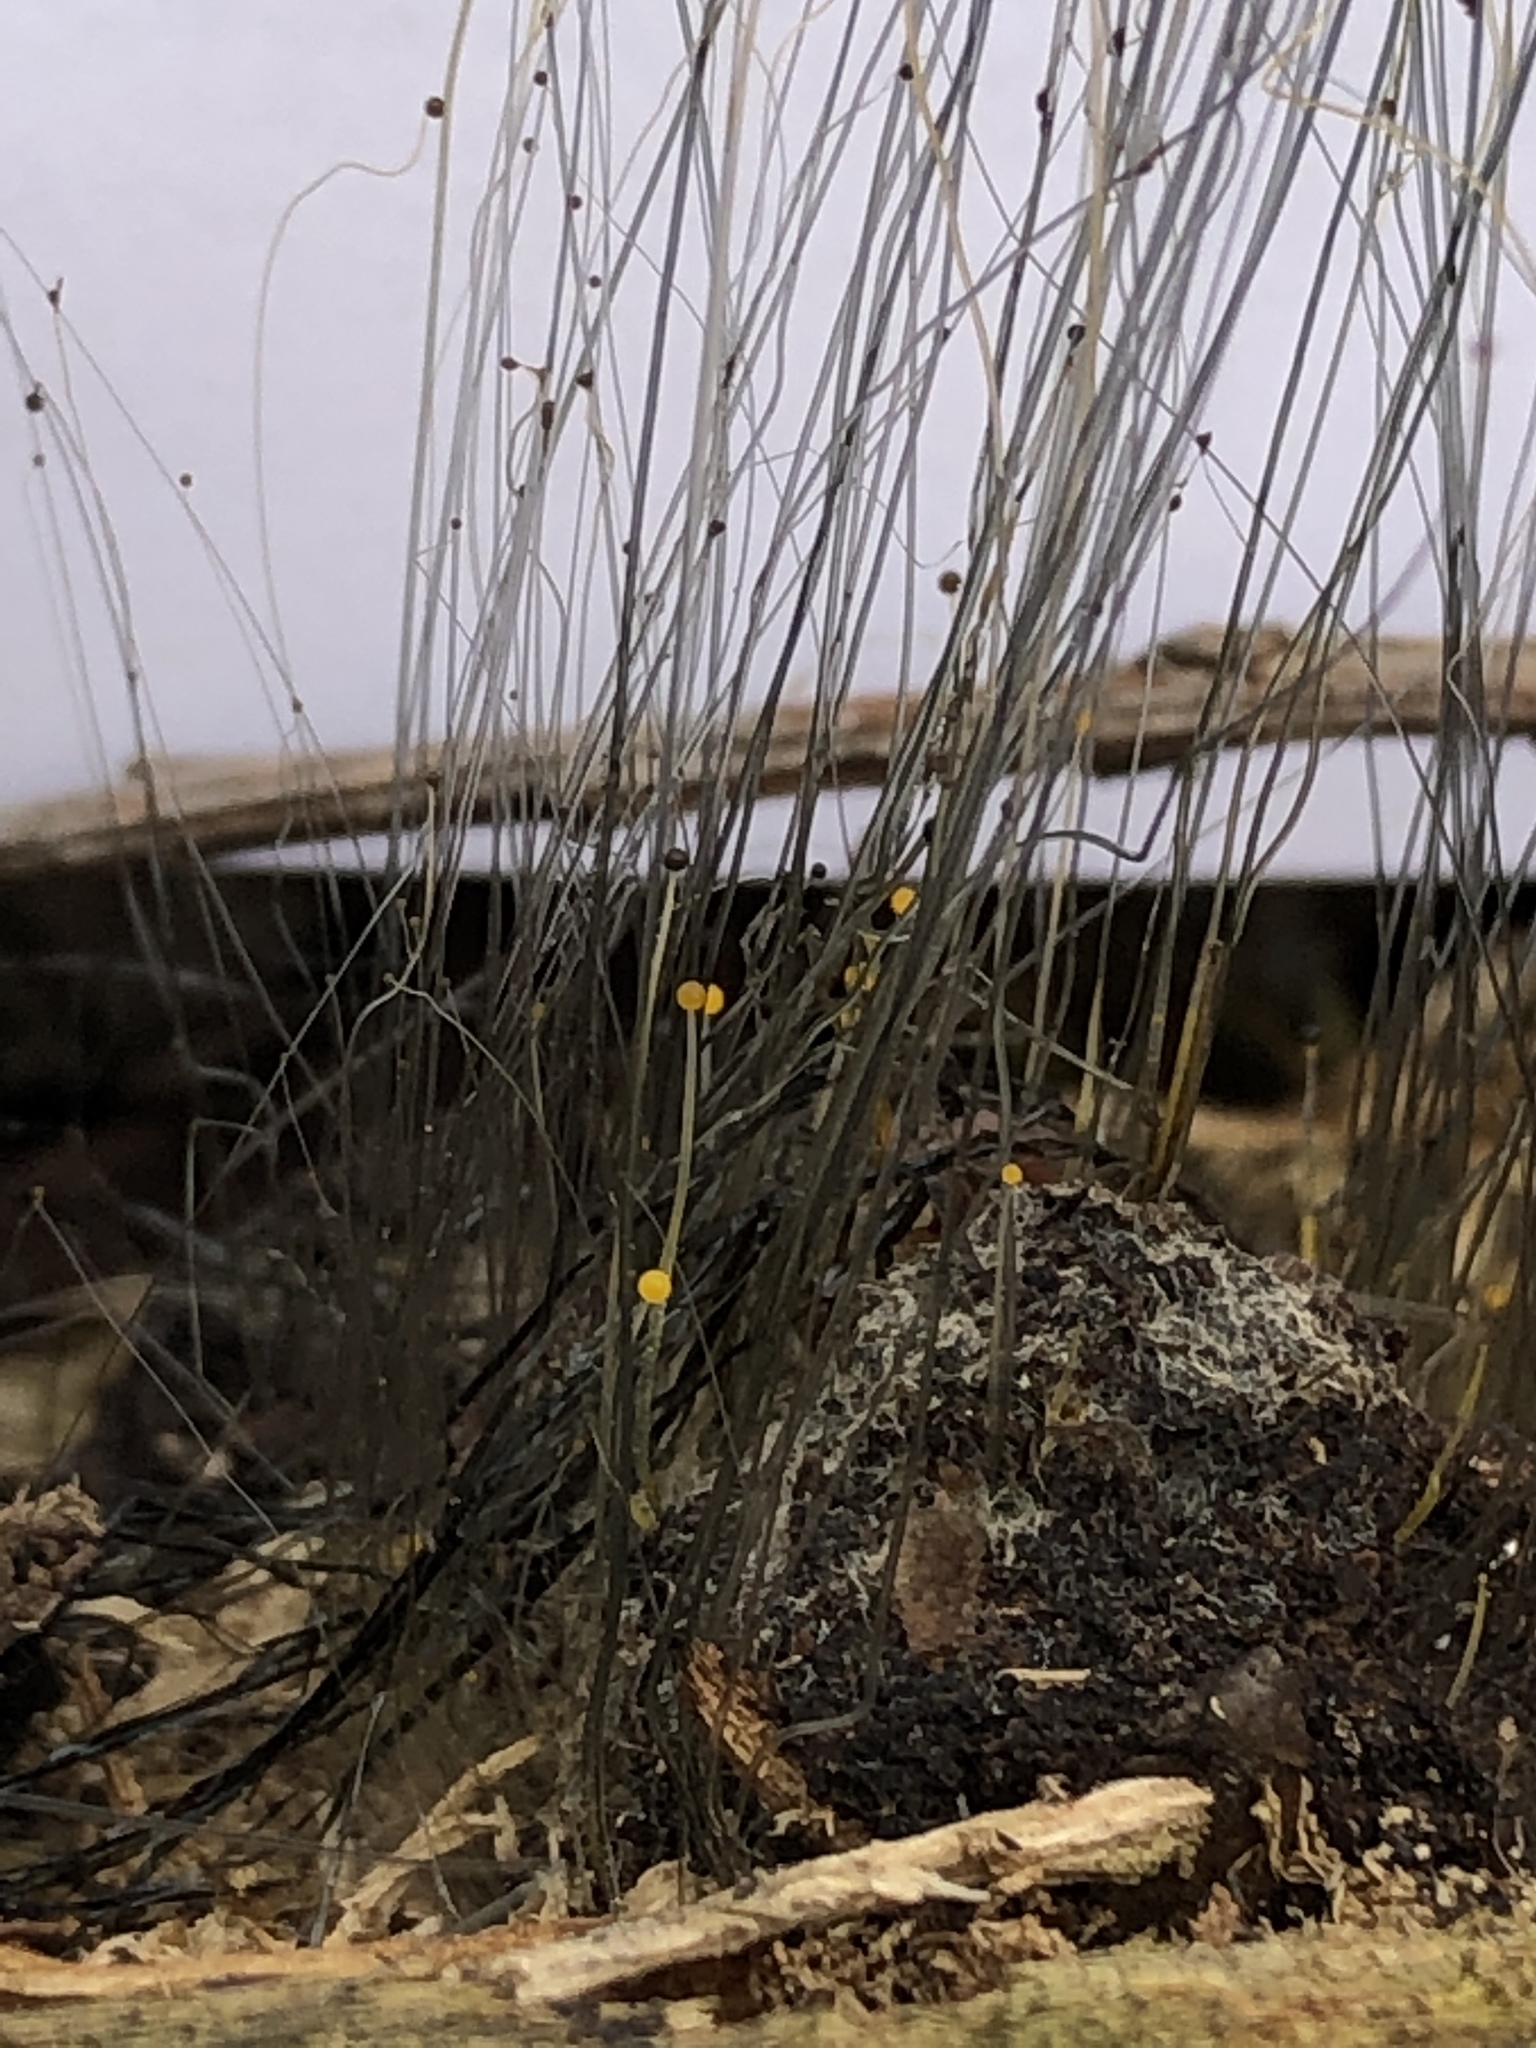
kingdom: Fungi
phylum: Mucoromycota
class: Mucoromycetes
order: Mucorales
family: Phycomycetaceae
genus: Phycomyces
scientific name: Phycomyces
